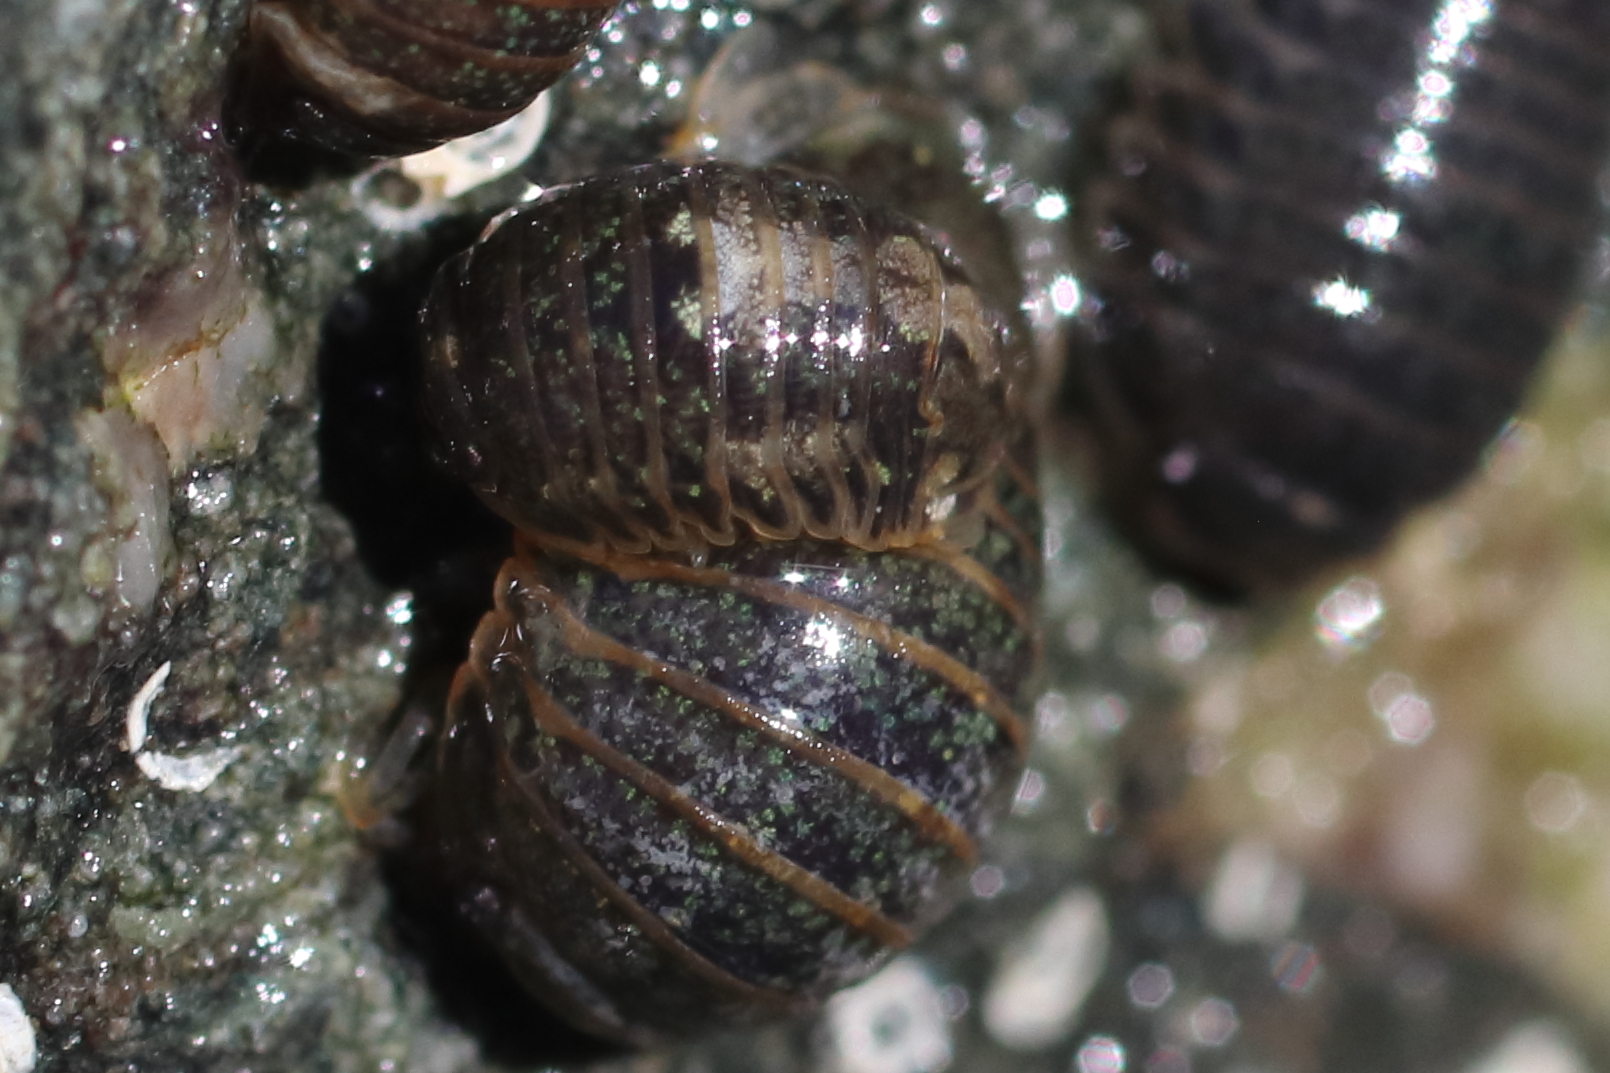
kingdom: Animalia
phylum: Arthropoda
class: Malacostraca
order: Isopoda
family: Sphaeromatidae
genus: Gnorimosphaeroma
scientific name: Gnorimosphaeroma oregonense
